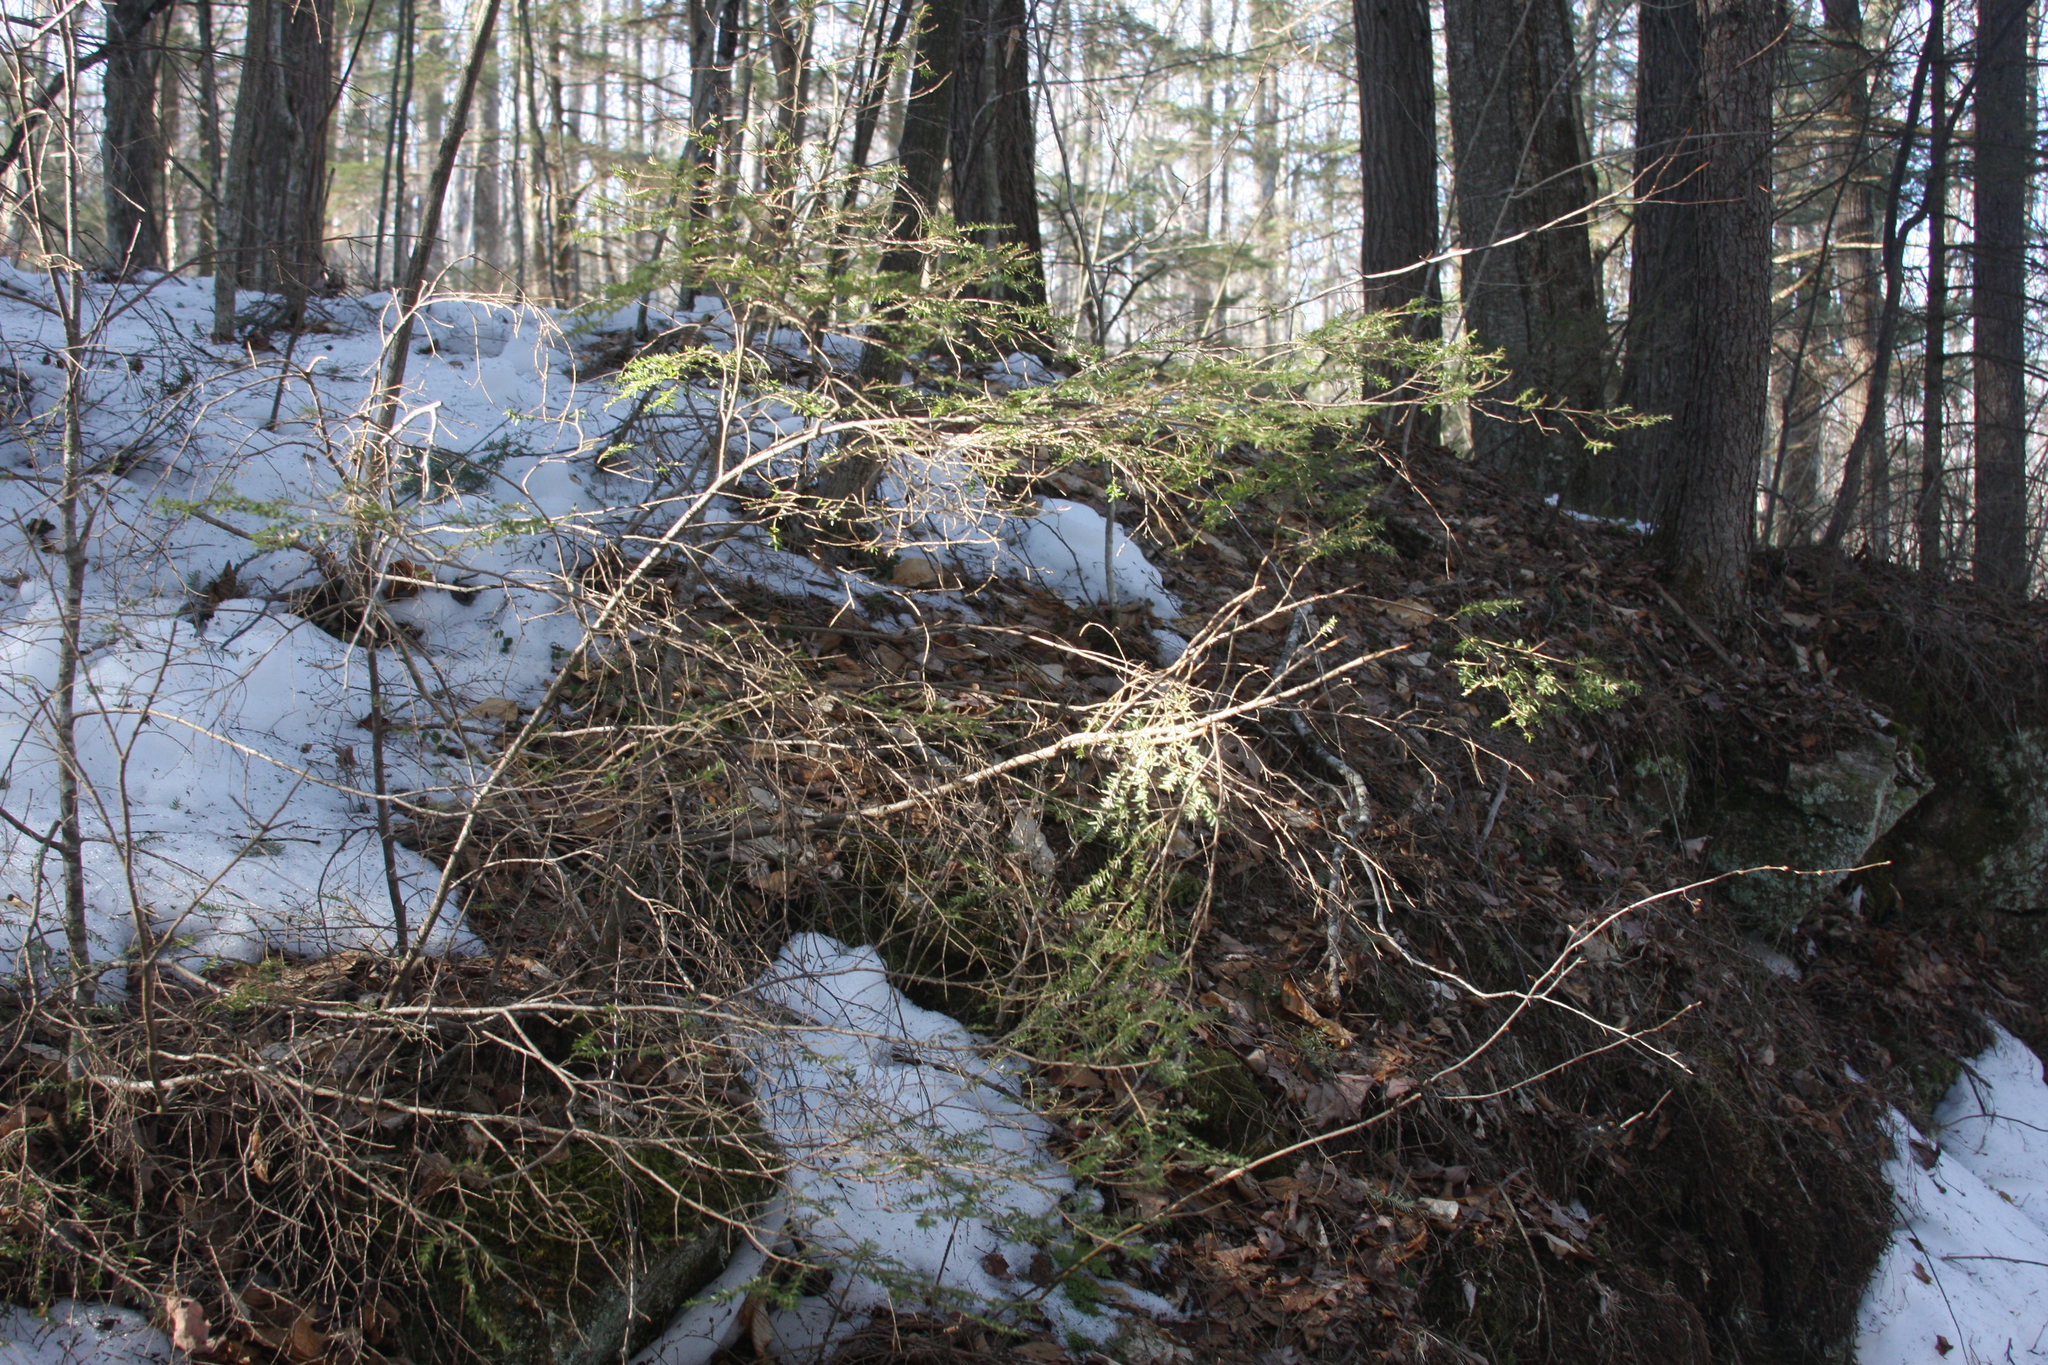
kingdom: Plantae
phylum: Tracheophyta
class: Pinopsida
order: Pinales
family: Pinaceae
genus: Tsuga
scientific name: Tsuga canadensis
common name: Eastern hemlock
